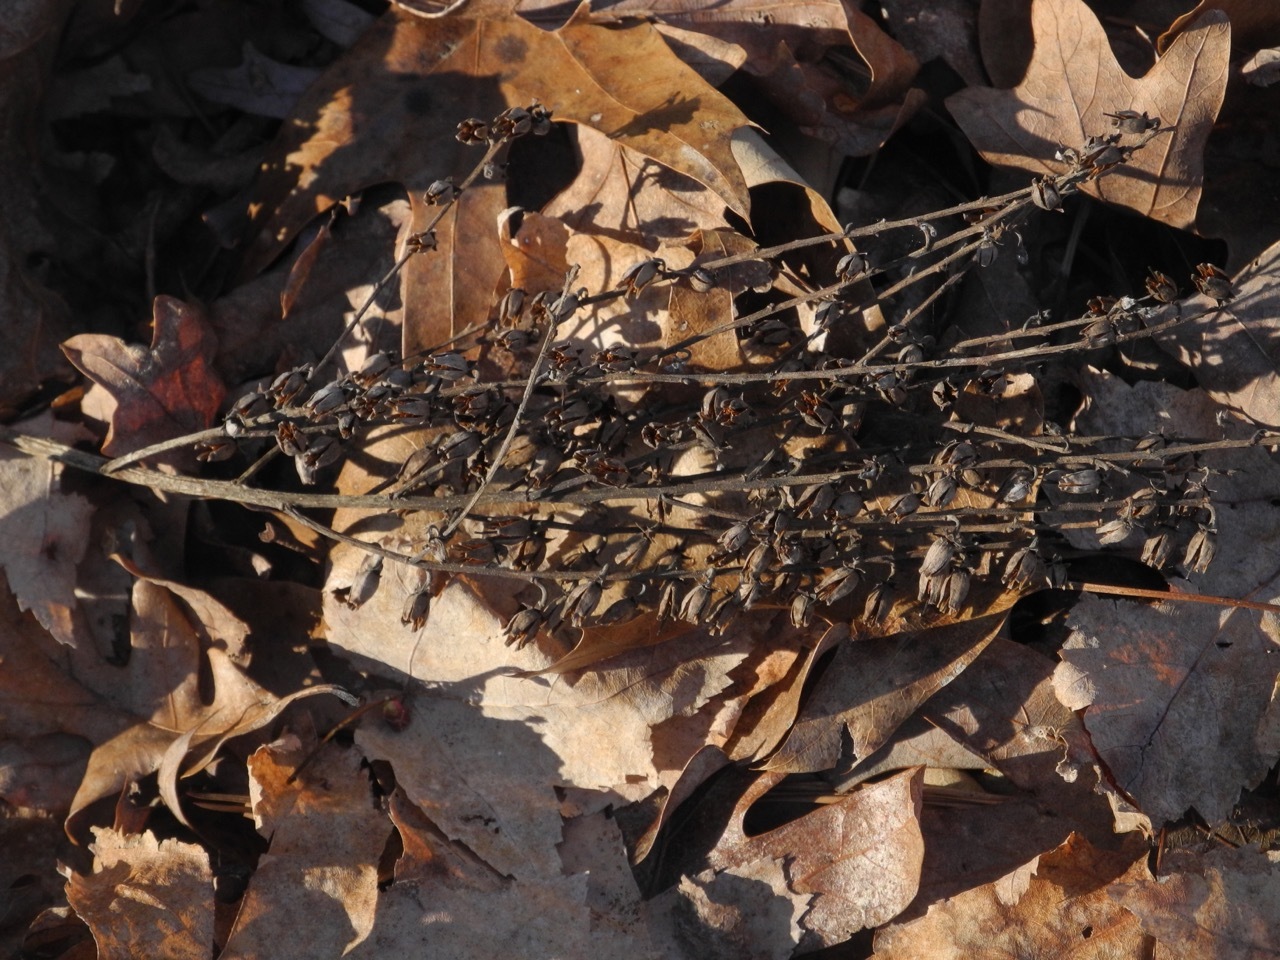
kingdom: Plantae
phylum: Tracheophyta
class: Magnoliopsida
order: Ericales
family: Ericaceae
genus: Oxydendrum
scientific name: Oxydendrum arboreum
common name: Sourwood
